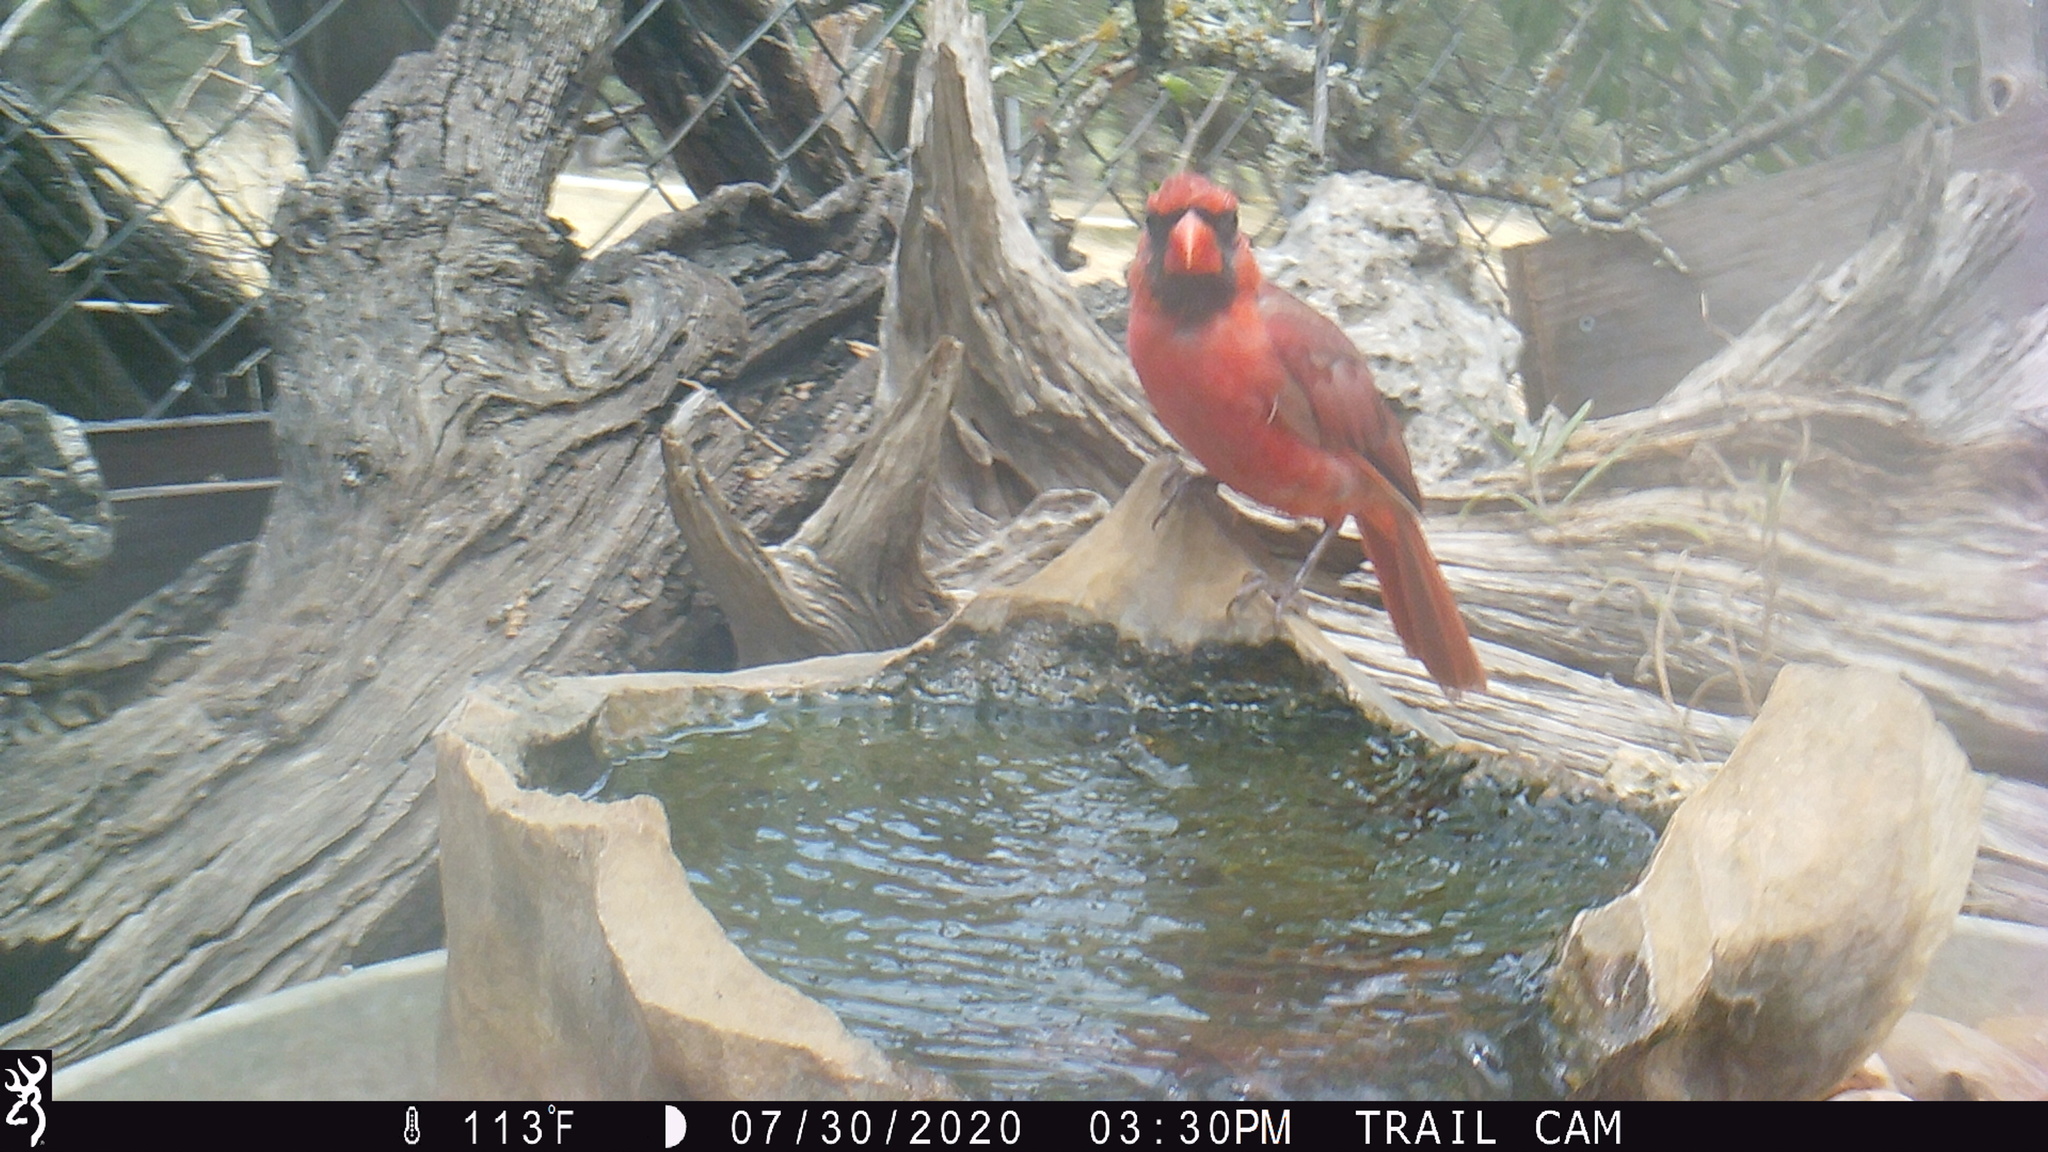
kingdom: Animalia
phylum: Chordata
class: Aves
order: Passeriformes
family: Cardinalidae
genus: Cardinalis
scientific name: Cardinalis cardinalis
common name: Northern cardinal
